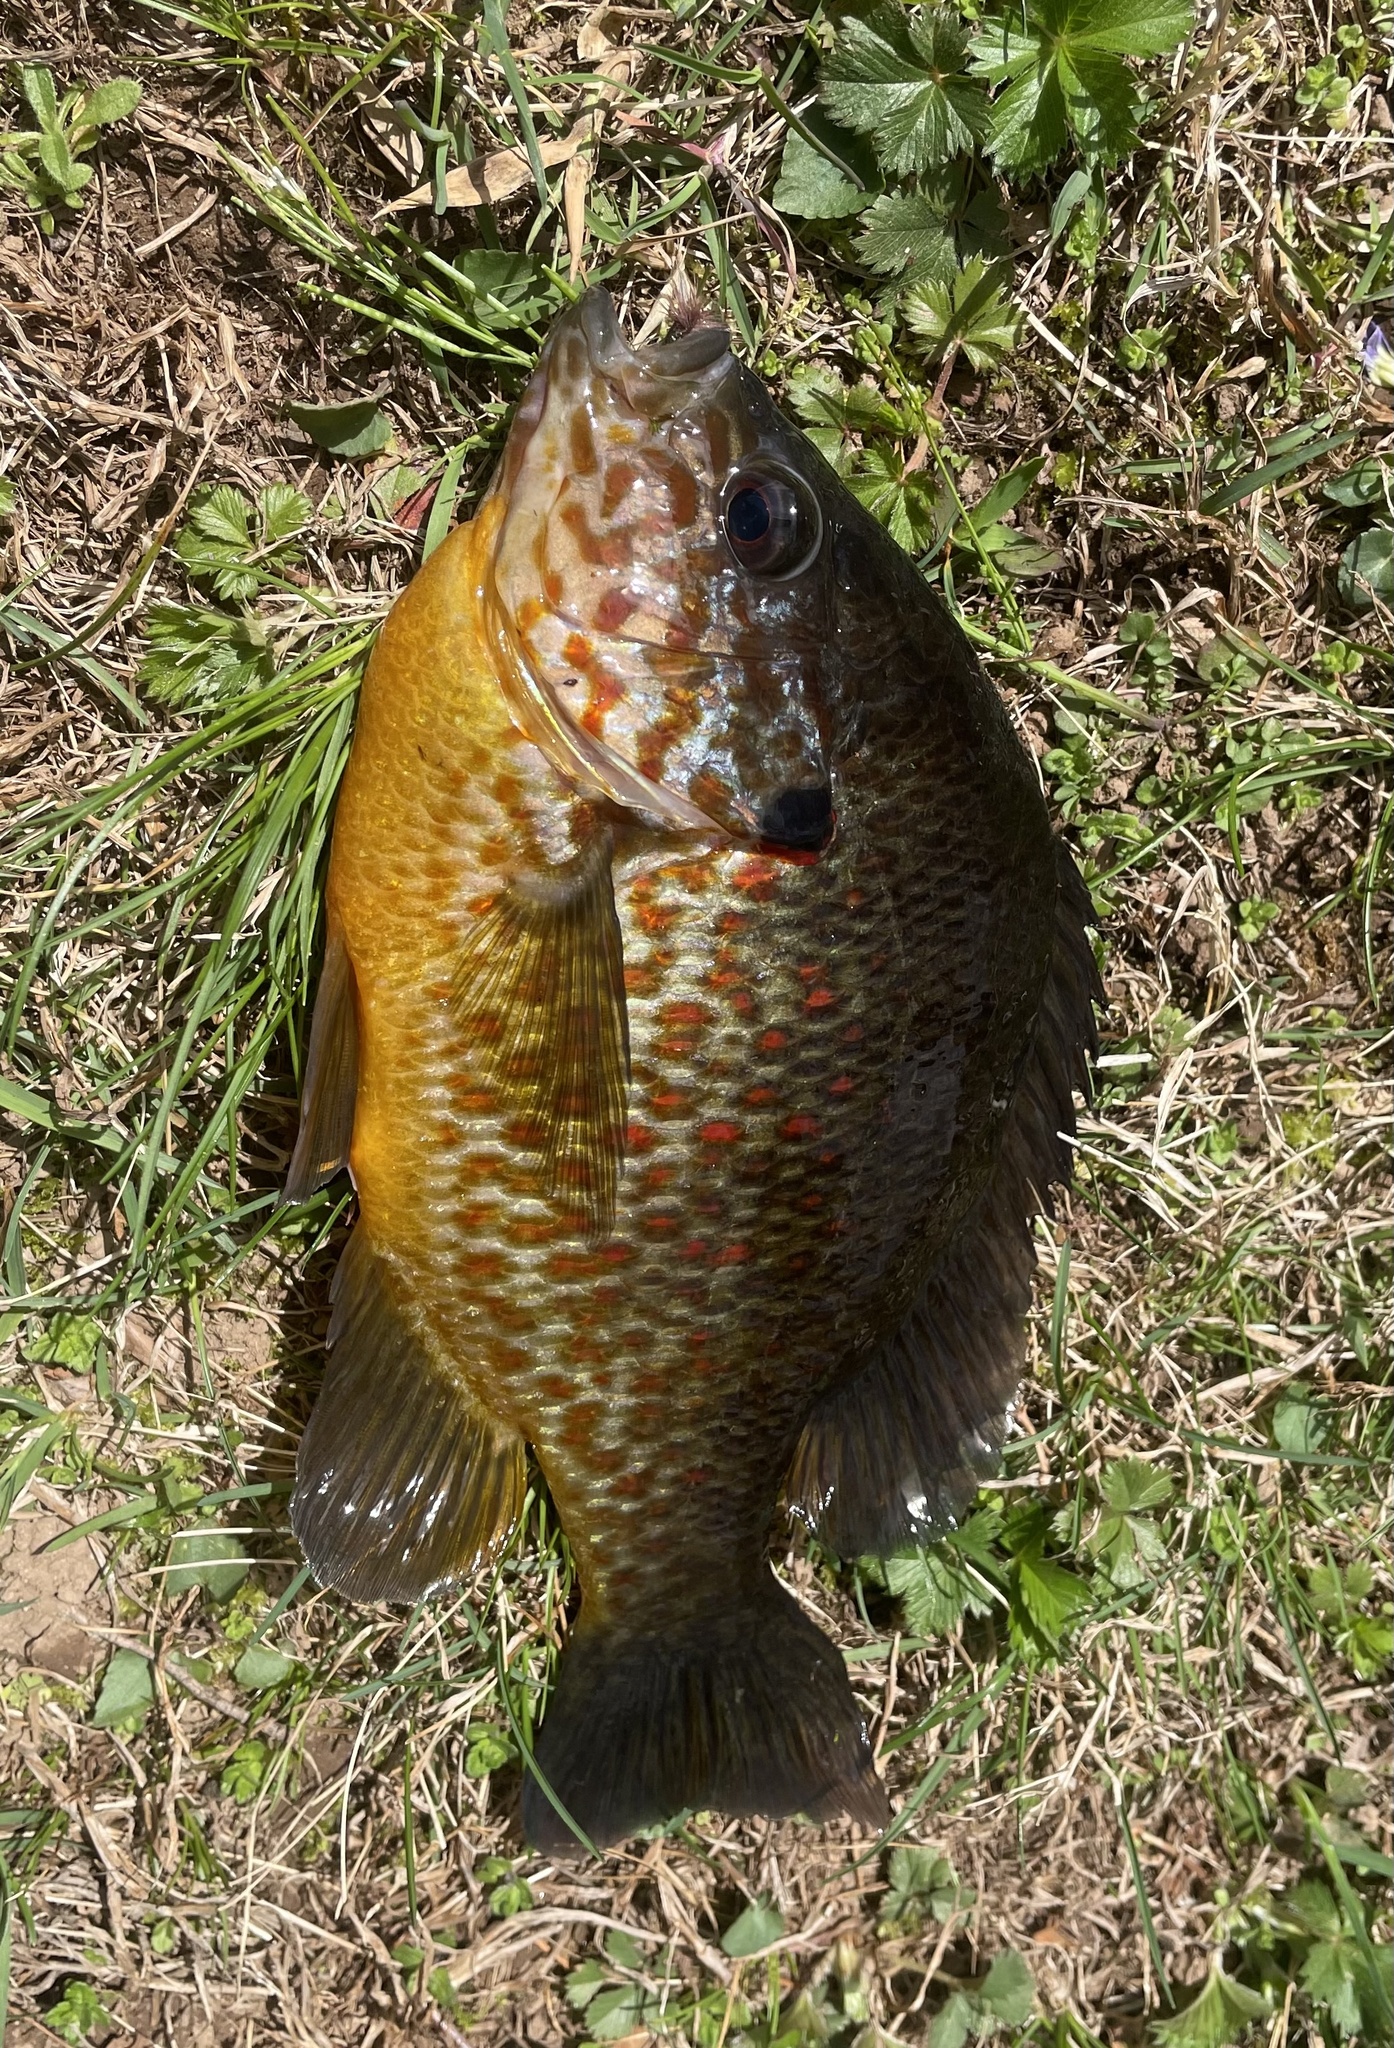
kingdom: Animalia
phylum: Chordata
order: Perciformes
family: Centrarchidae
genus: Lepomis
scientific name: Lepomis gibbosus
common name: Pumpkinseed
